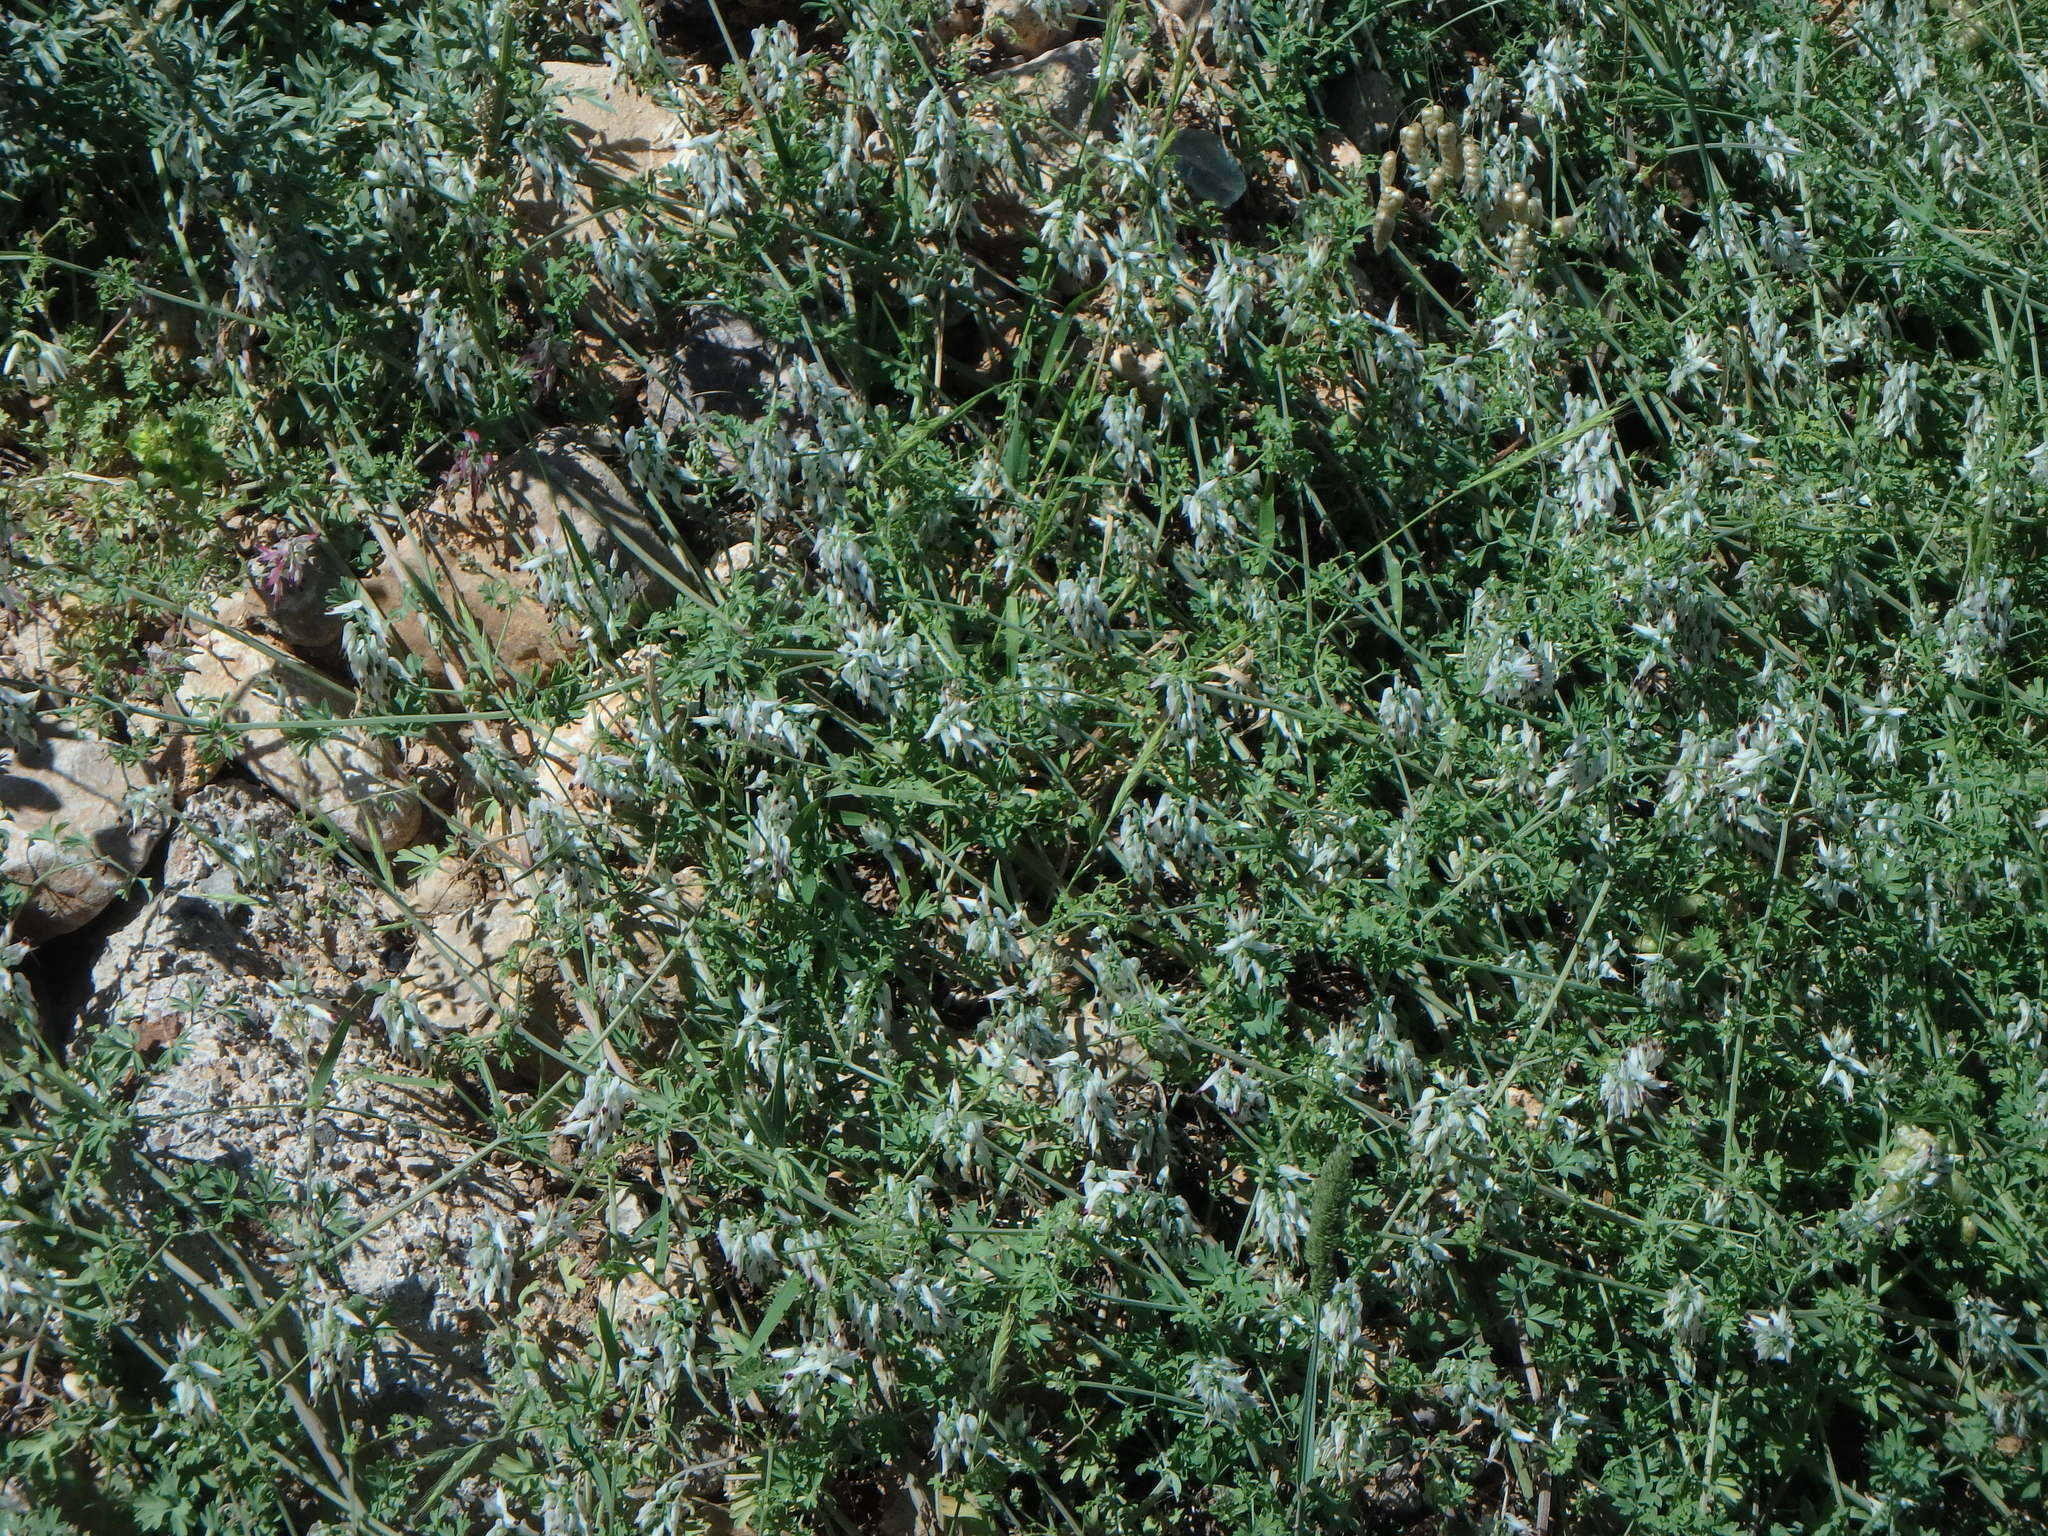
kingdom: Plantae
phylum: Tracheophyta
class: Magnoliopsida
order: Ranunculales
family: Papaveraceae
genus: Fumaria
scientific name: Fumaria capreolata
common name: White ramping-fumitory
